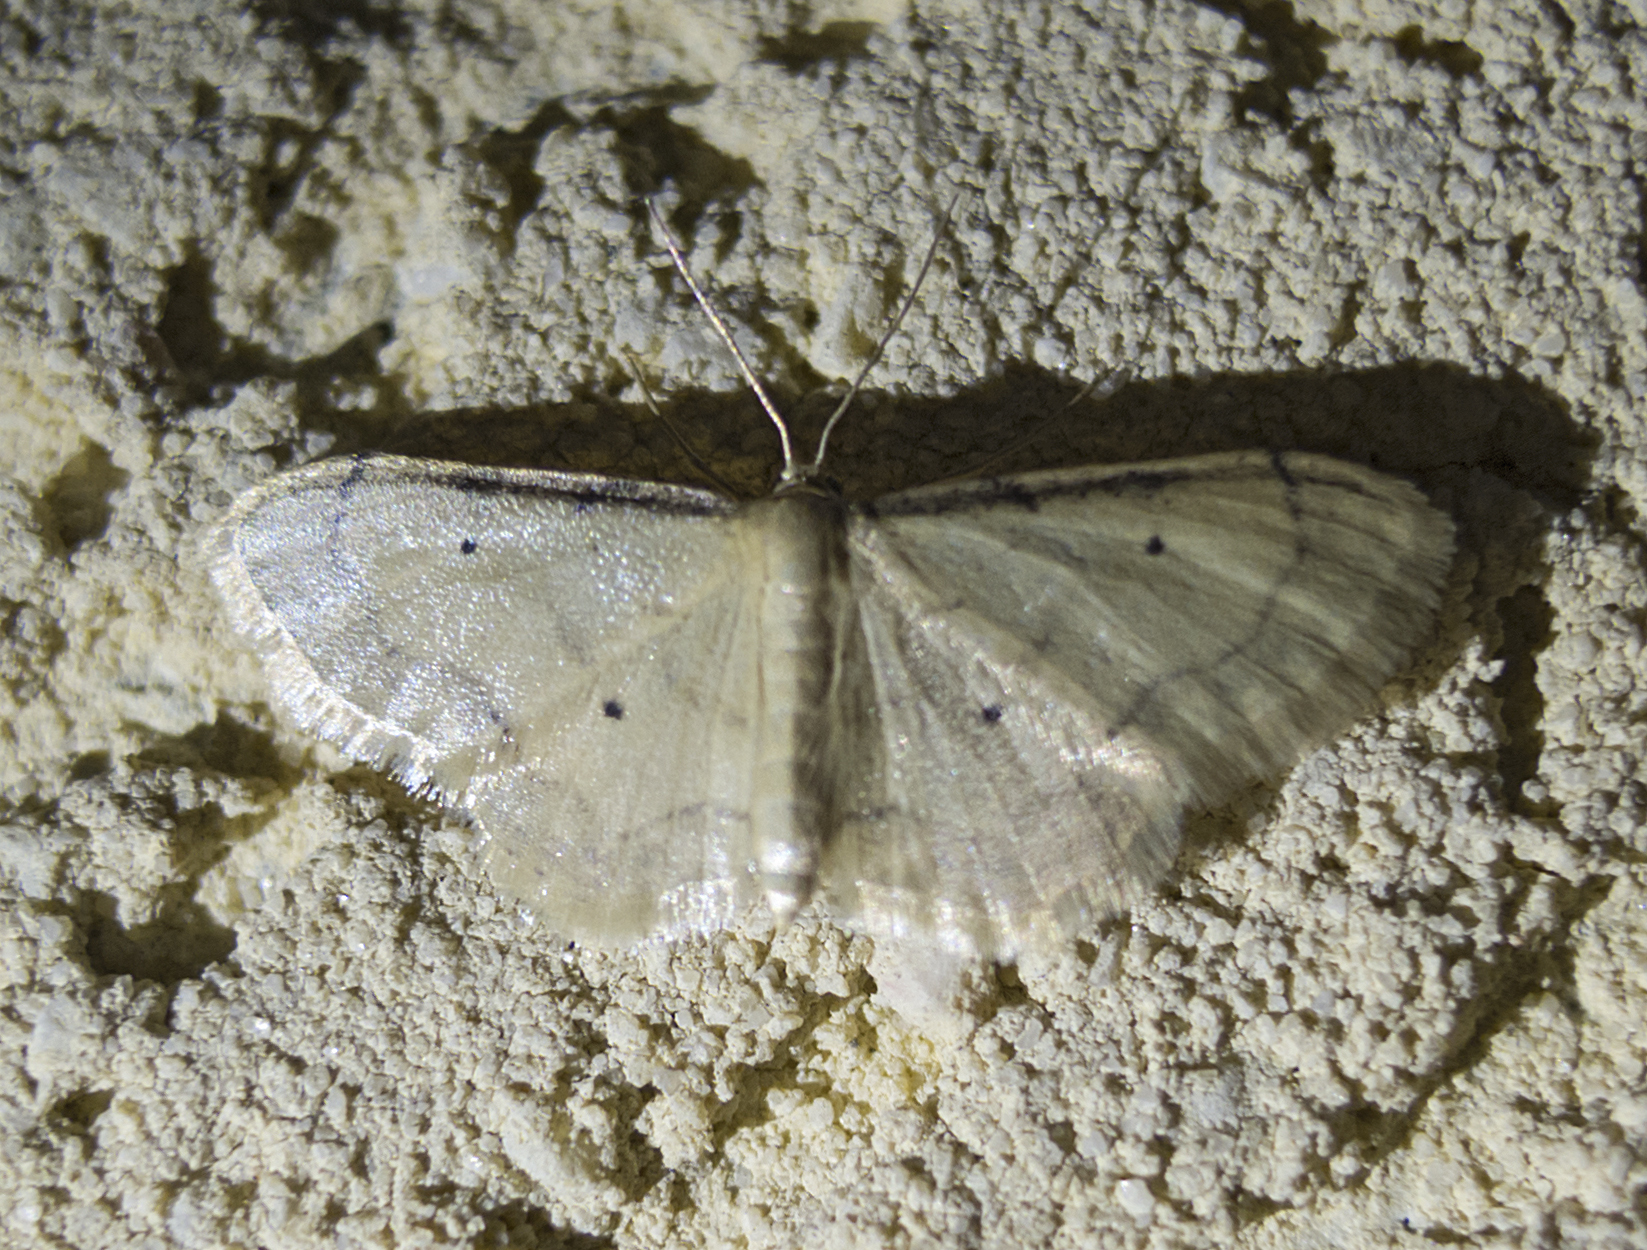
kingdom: Animalia
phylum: Arthropoda
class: Insecta
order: Lepidoptera
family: Geometridae
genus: Idaea
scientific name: Idaea politaria
